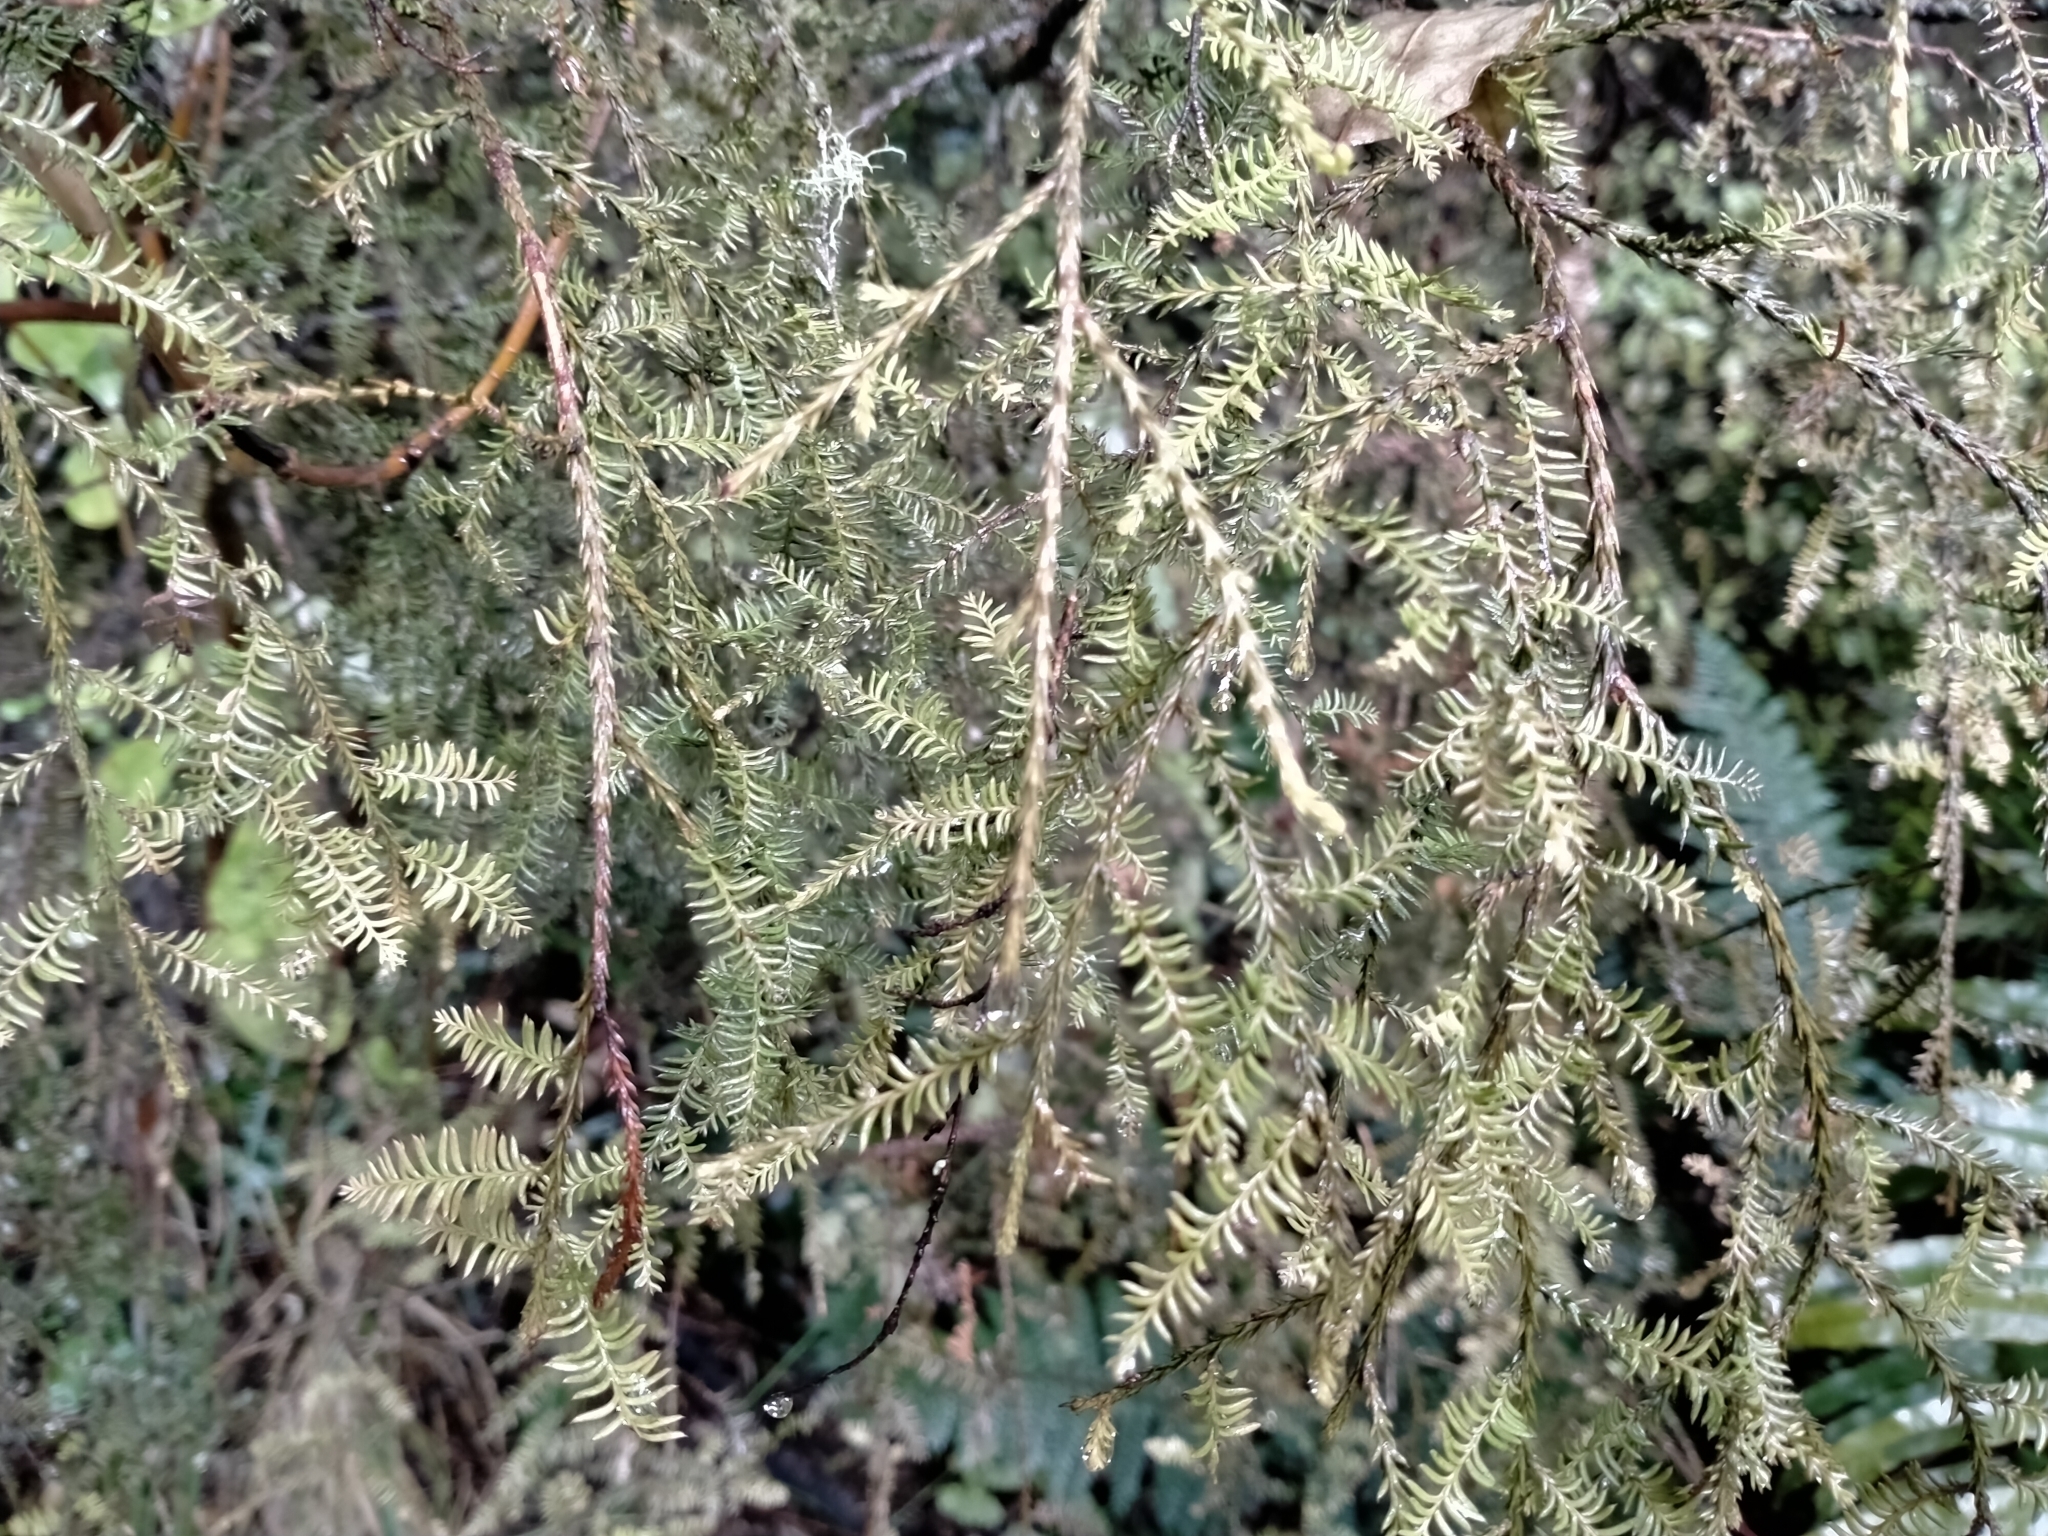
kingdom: Plantae
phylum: Tracheophyta
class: Pinopsida
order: Pinales
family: Podocarpaceae
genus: Dacrycarpus
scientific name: Dacrycarpus dacrydioides
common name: White pine
